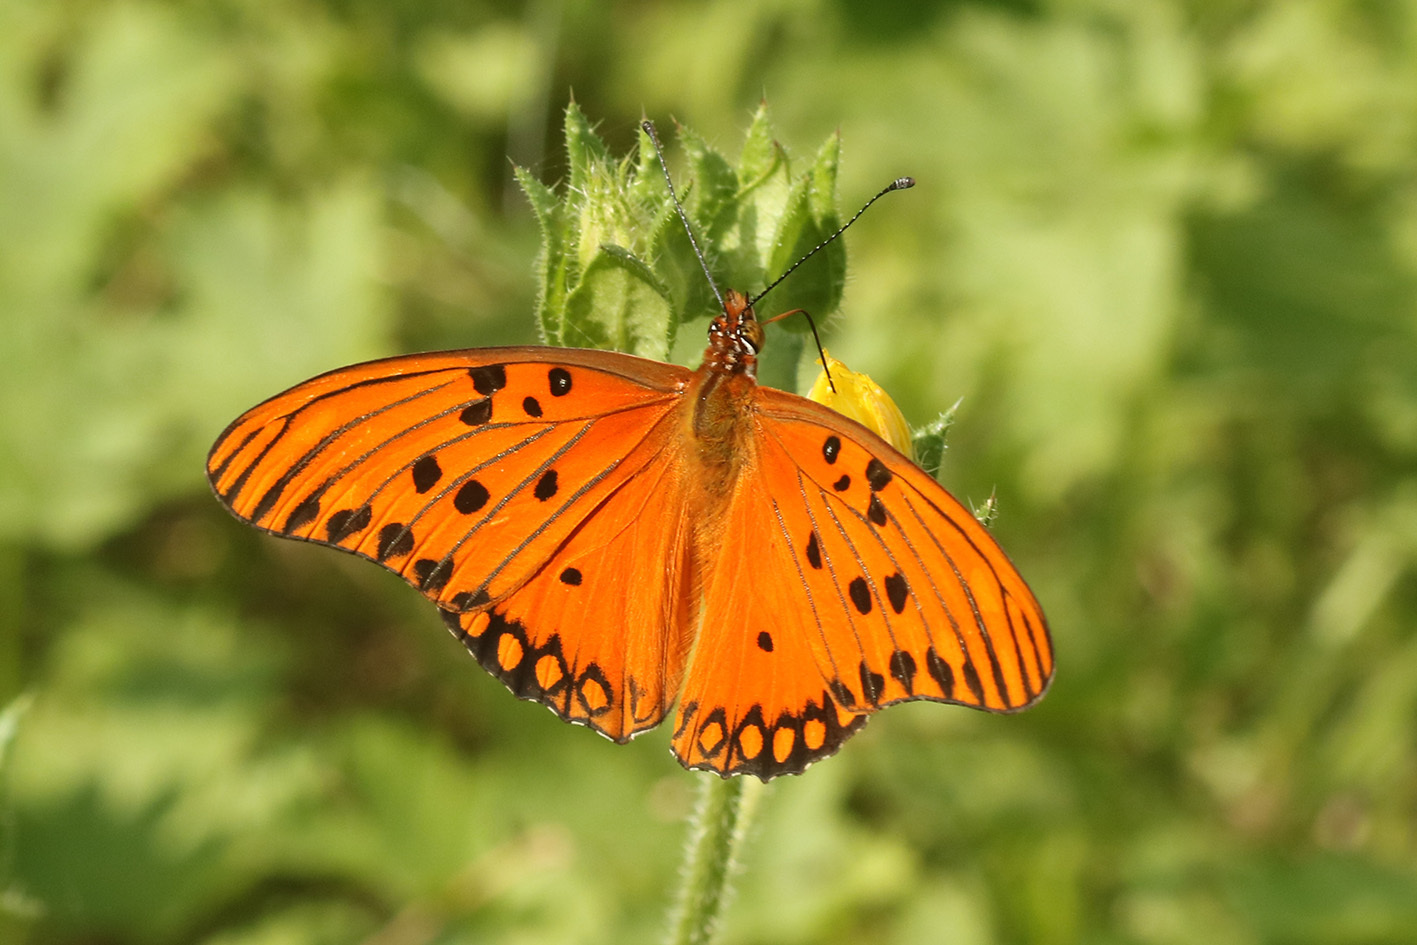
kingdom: Animalia
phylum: Arthropoda
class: Insecta
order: Lepidoptera
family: Nymphalidae
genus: Dione
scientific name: Dione vanillae
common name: Gulf fritillary
